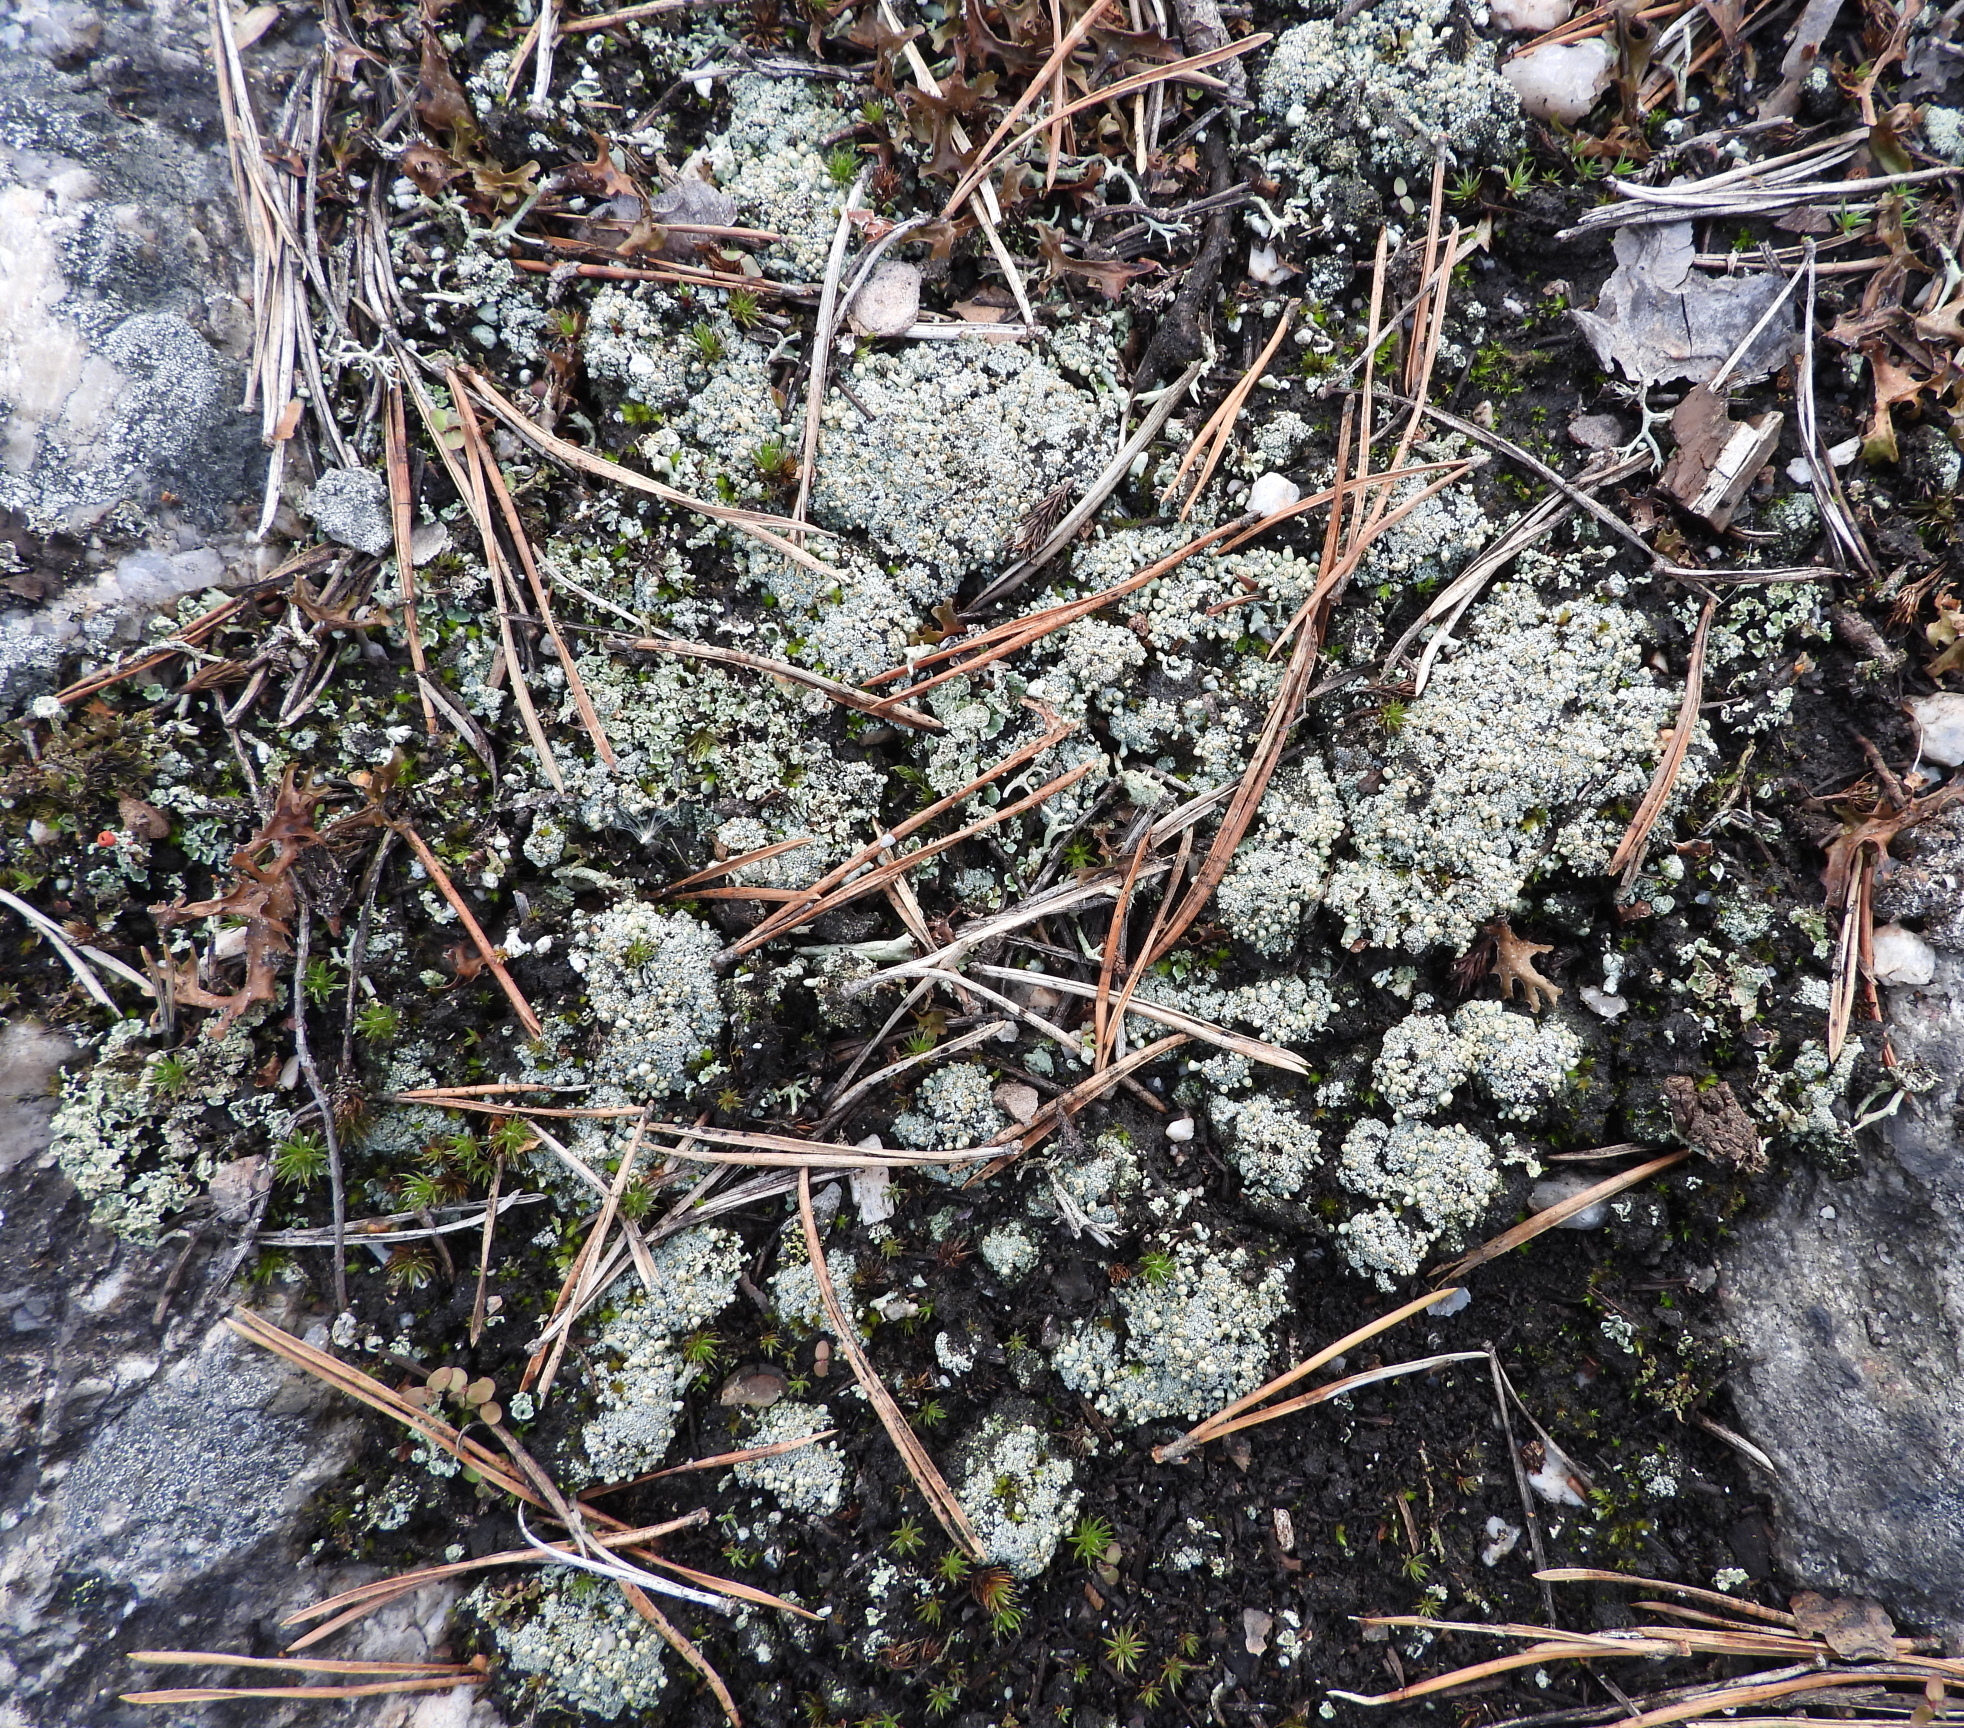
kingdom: Fungi
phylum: Ascomycota
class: Lecanoromycetes
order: Lecanorales
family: Cladoniaceae
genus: Pycnothelia
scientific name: Pycnothelia papillaria
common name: Nipple lichen
